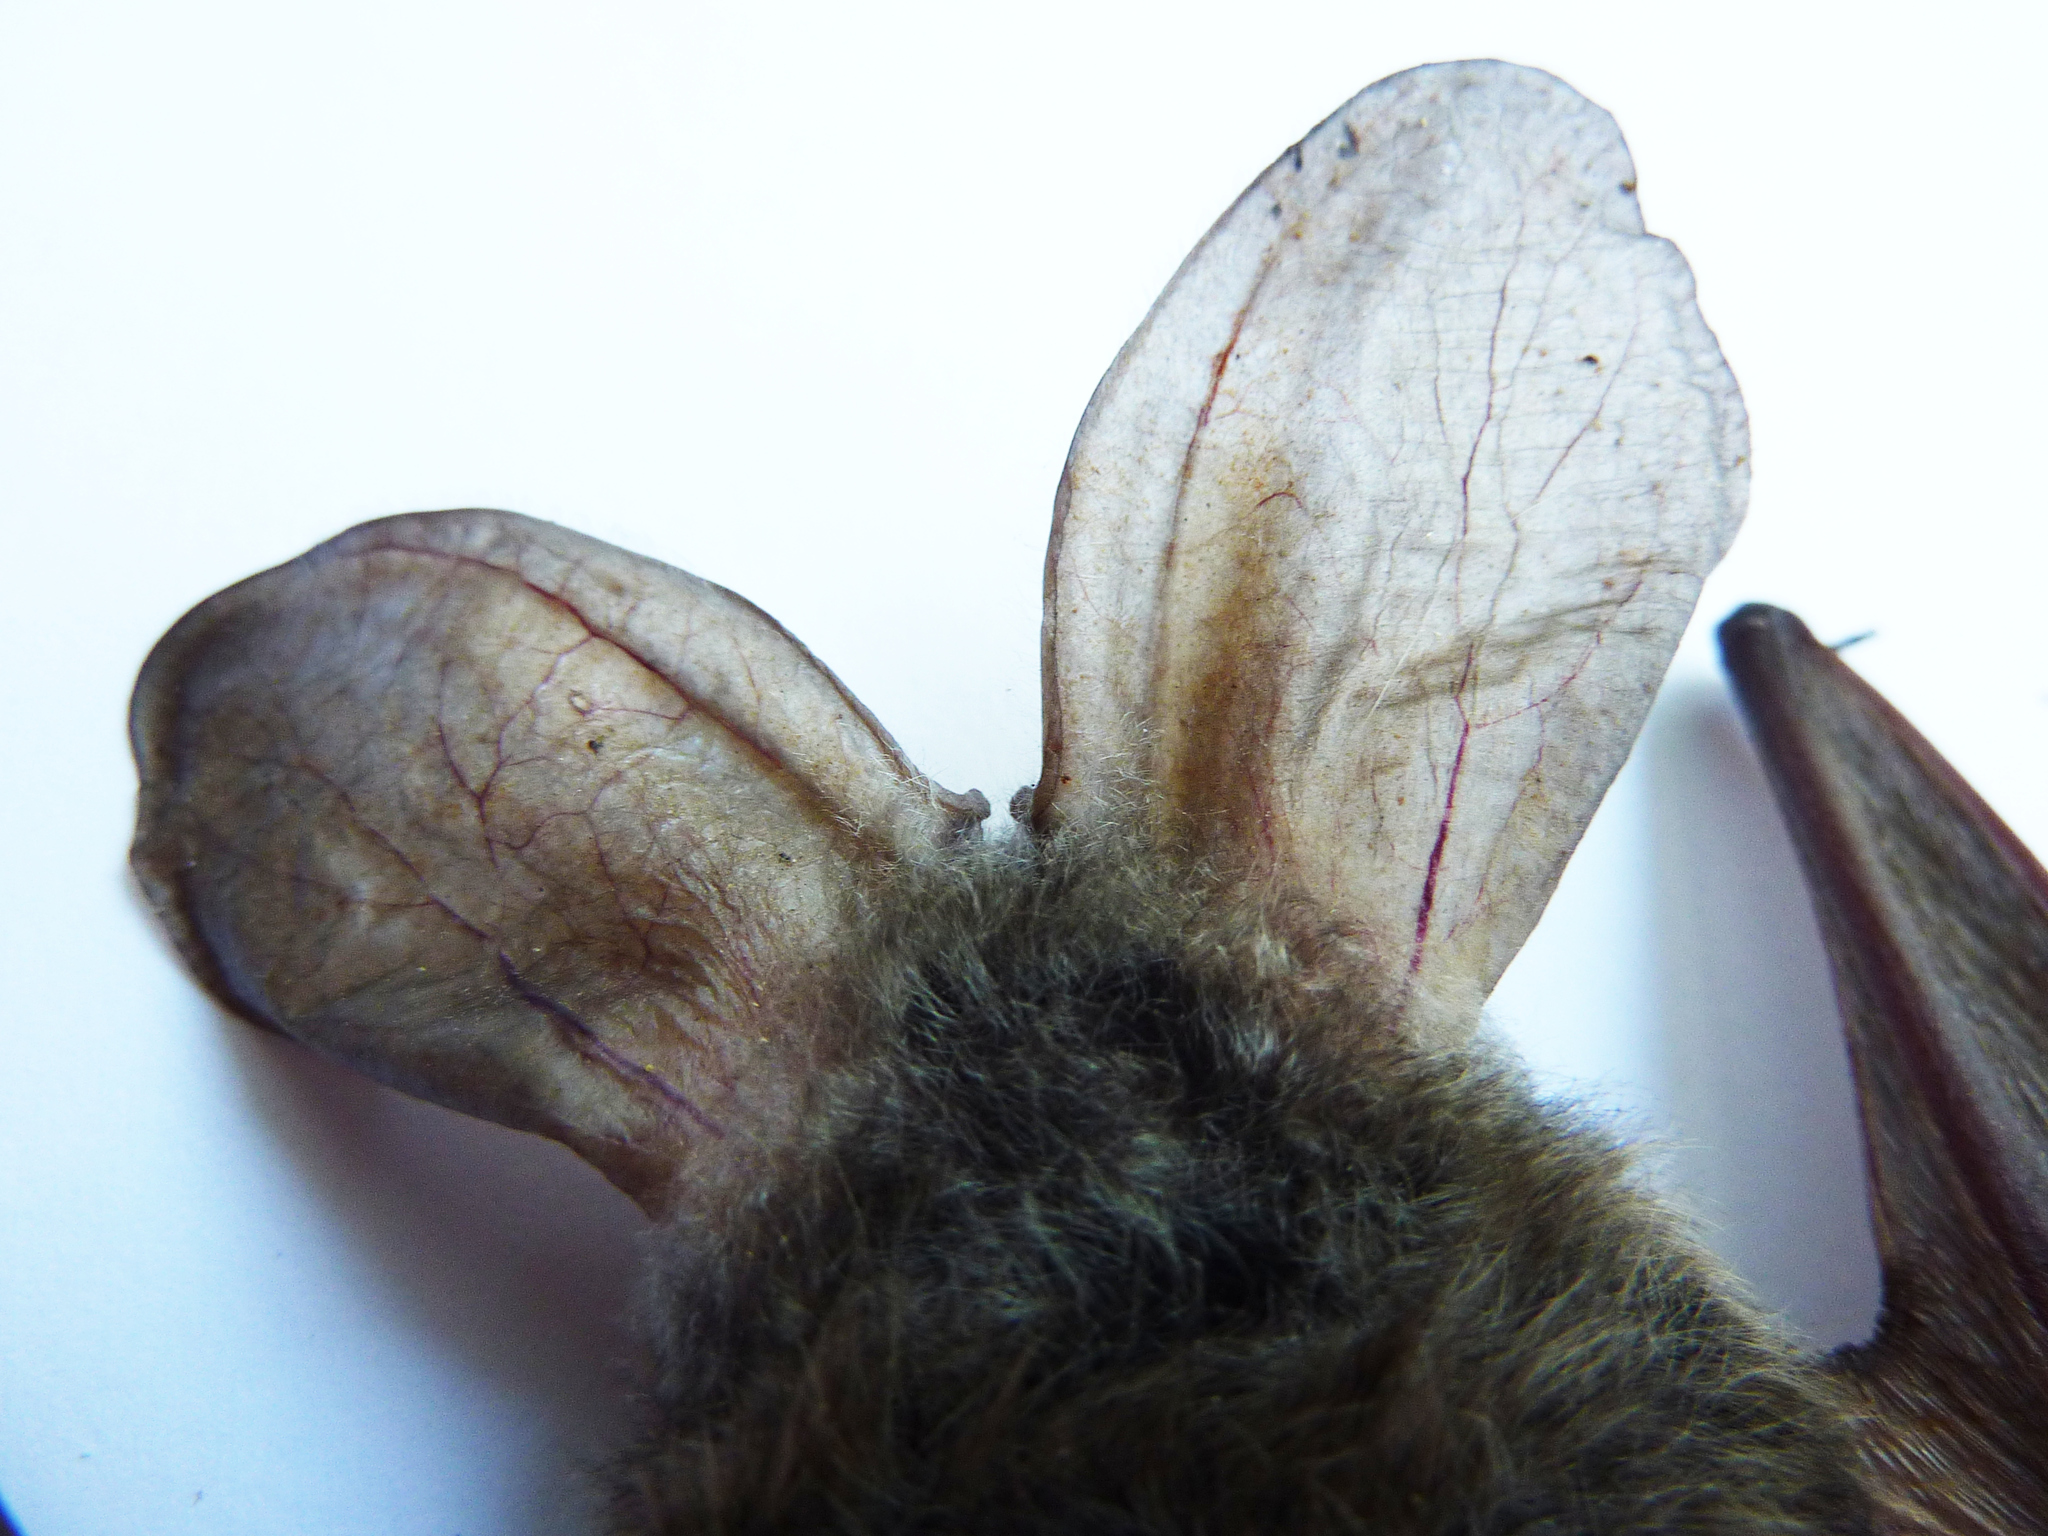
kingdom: Animalia
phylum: Chordata
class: Mammalia
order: Chiroptera
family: Vespertilionidae
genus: Plecotus
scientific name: Plecotus auritus
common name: Brown long-eared bat
